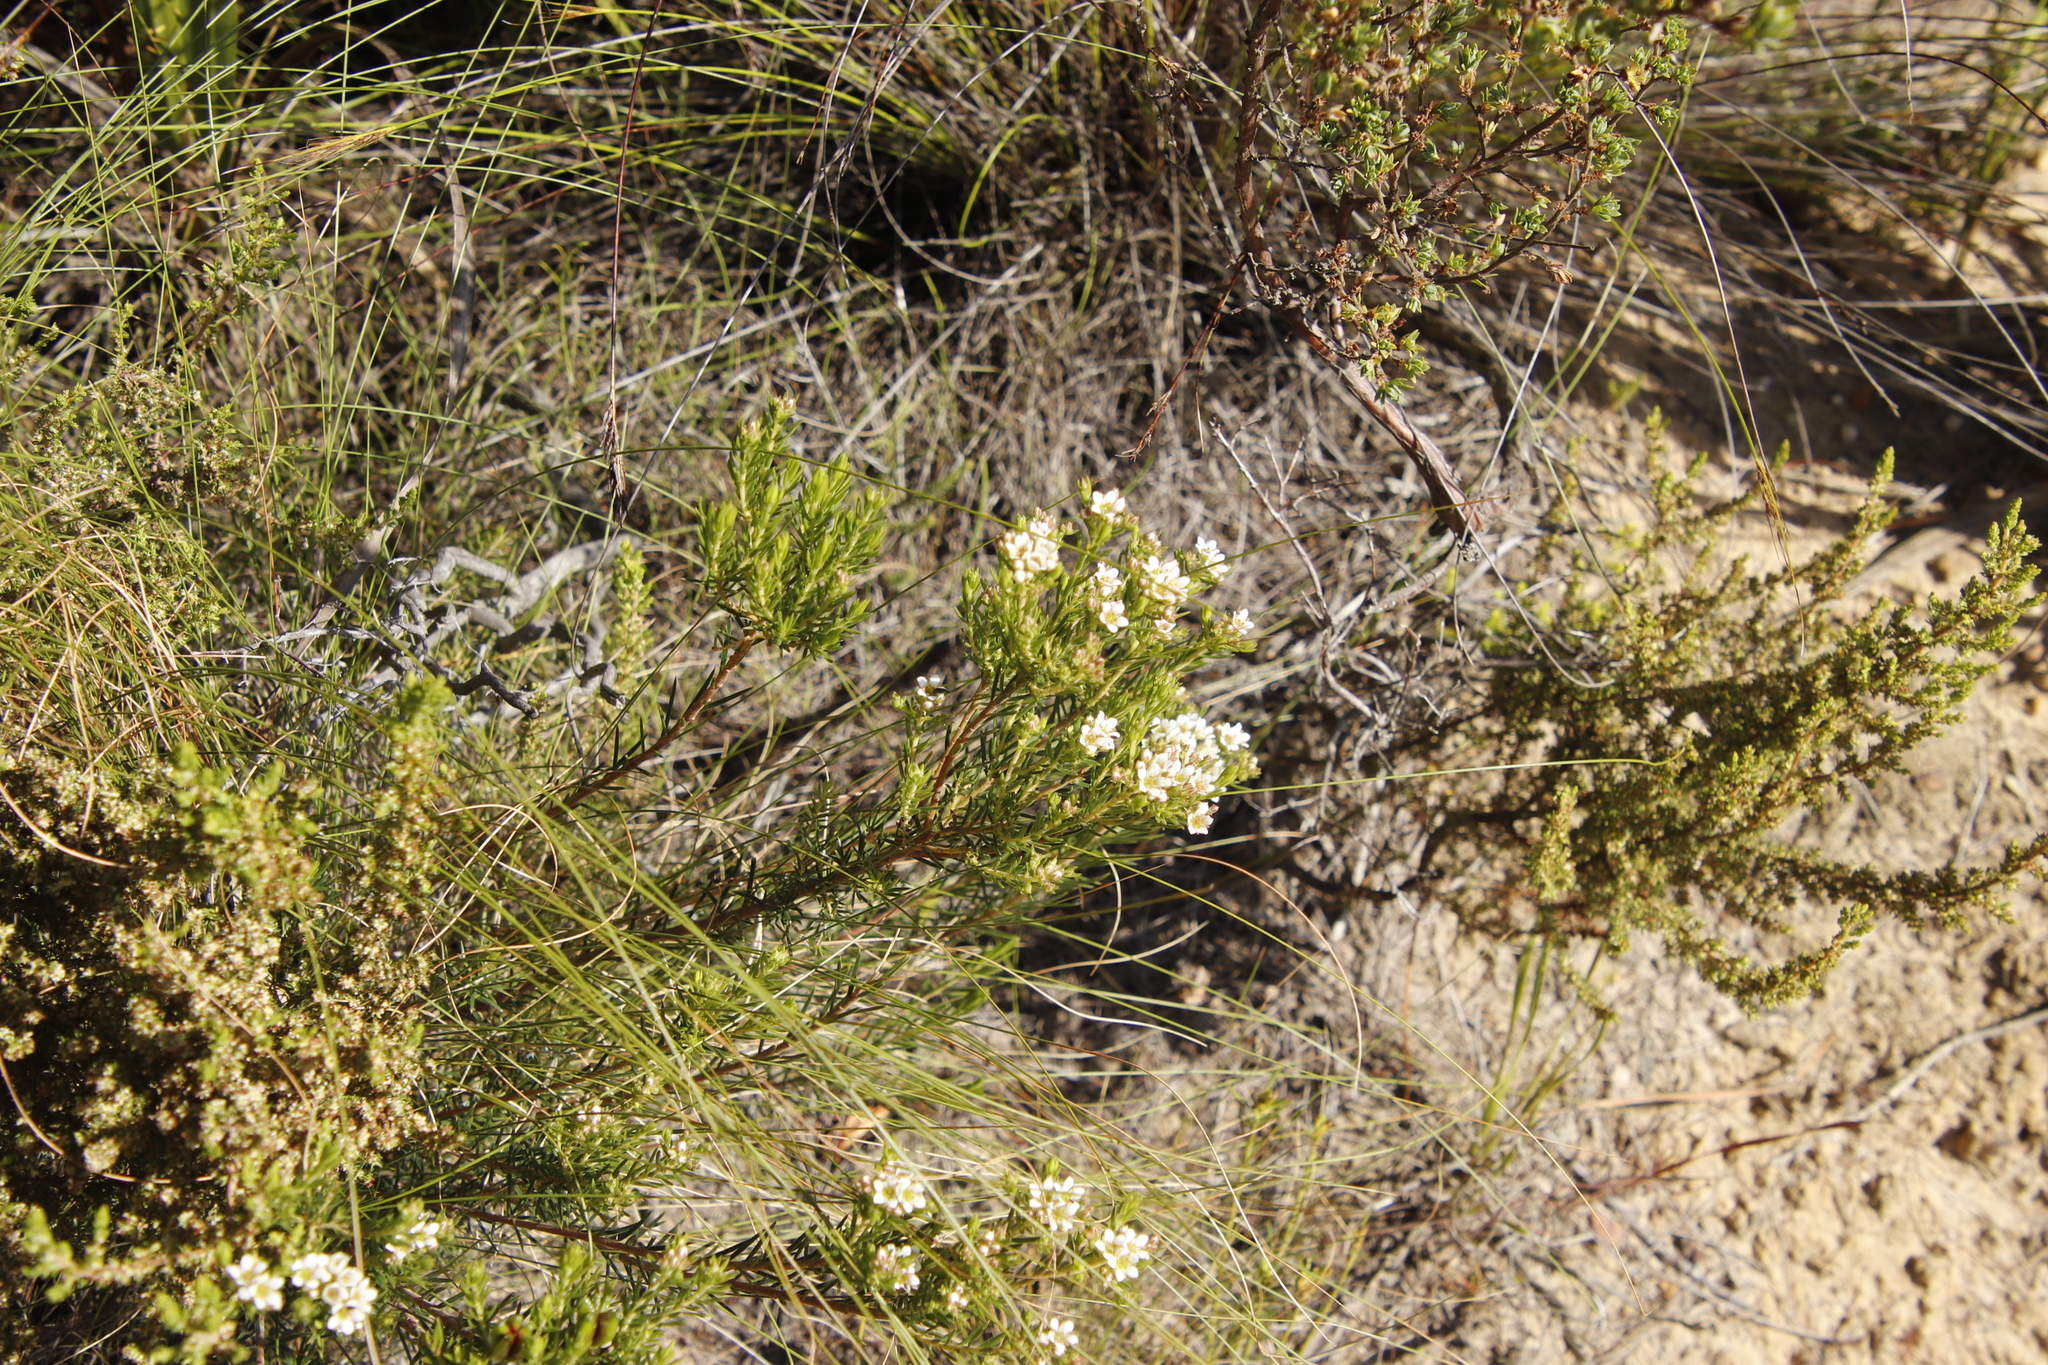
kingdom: Plantae
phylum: Tracheophyta
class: Magnoliopsida
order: Sapindales
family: Rutaceae
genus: Diosma
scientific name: Diosma hirsuta
